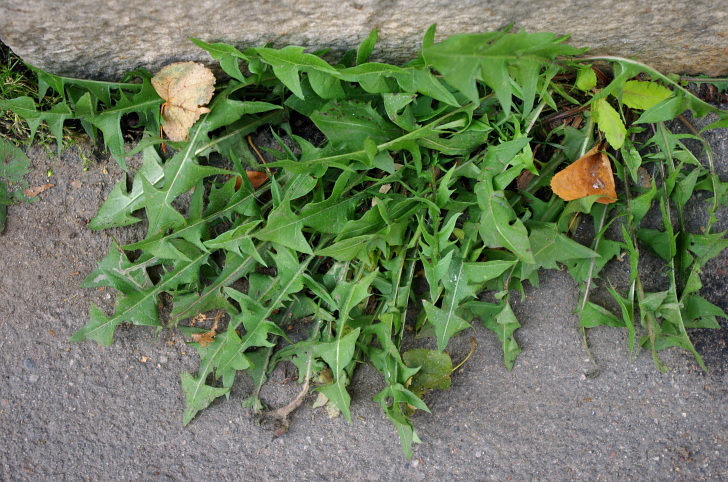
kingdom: Plantae
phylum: Tracheophyta
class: Magnoliopsida
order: Asterales
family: Asteraceae
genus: Taraxacum
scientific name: Taraxacum officinale
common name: Common dandelion
